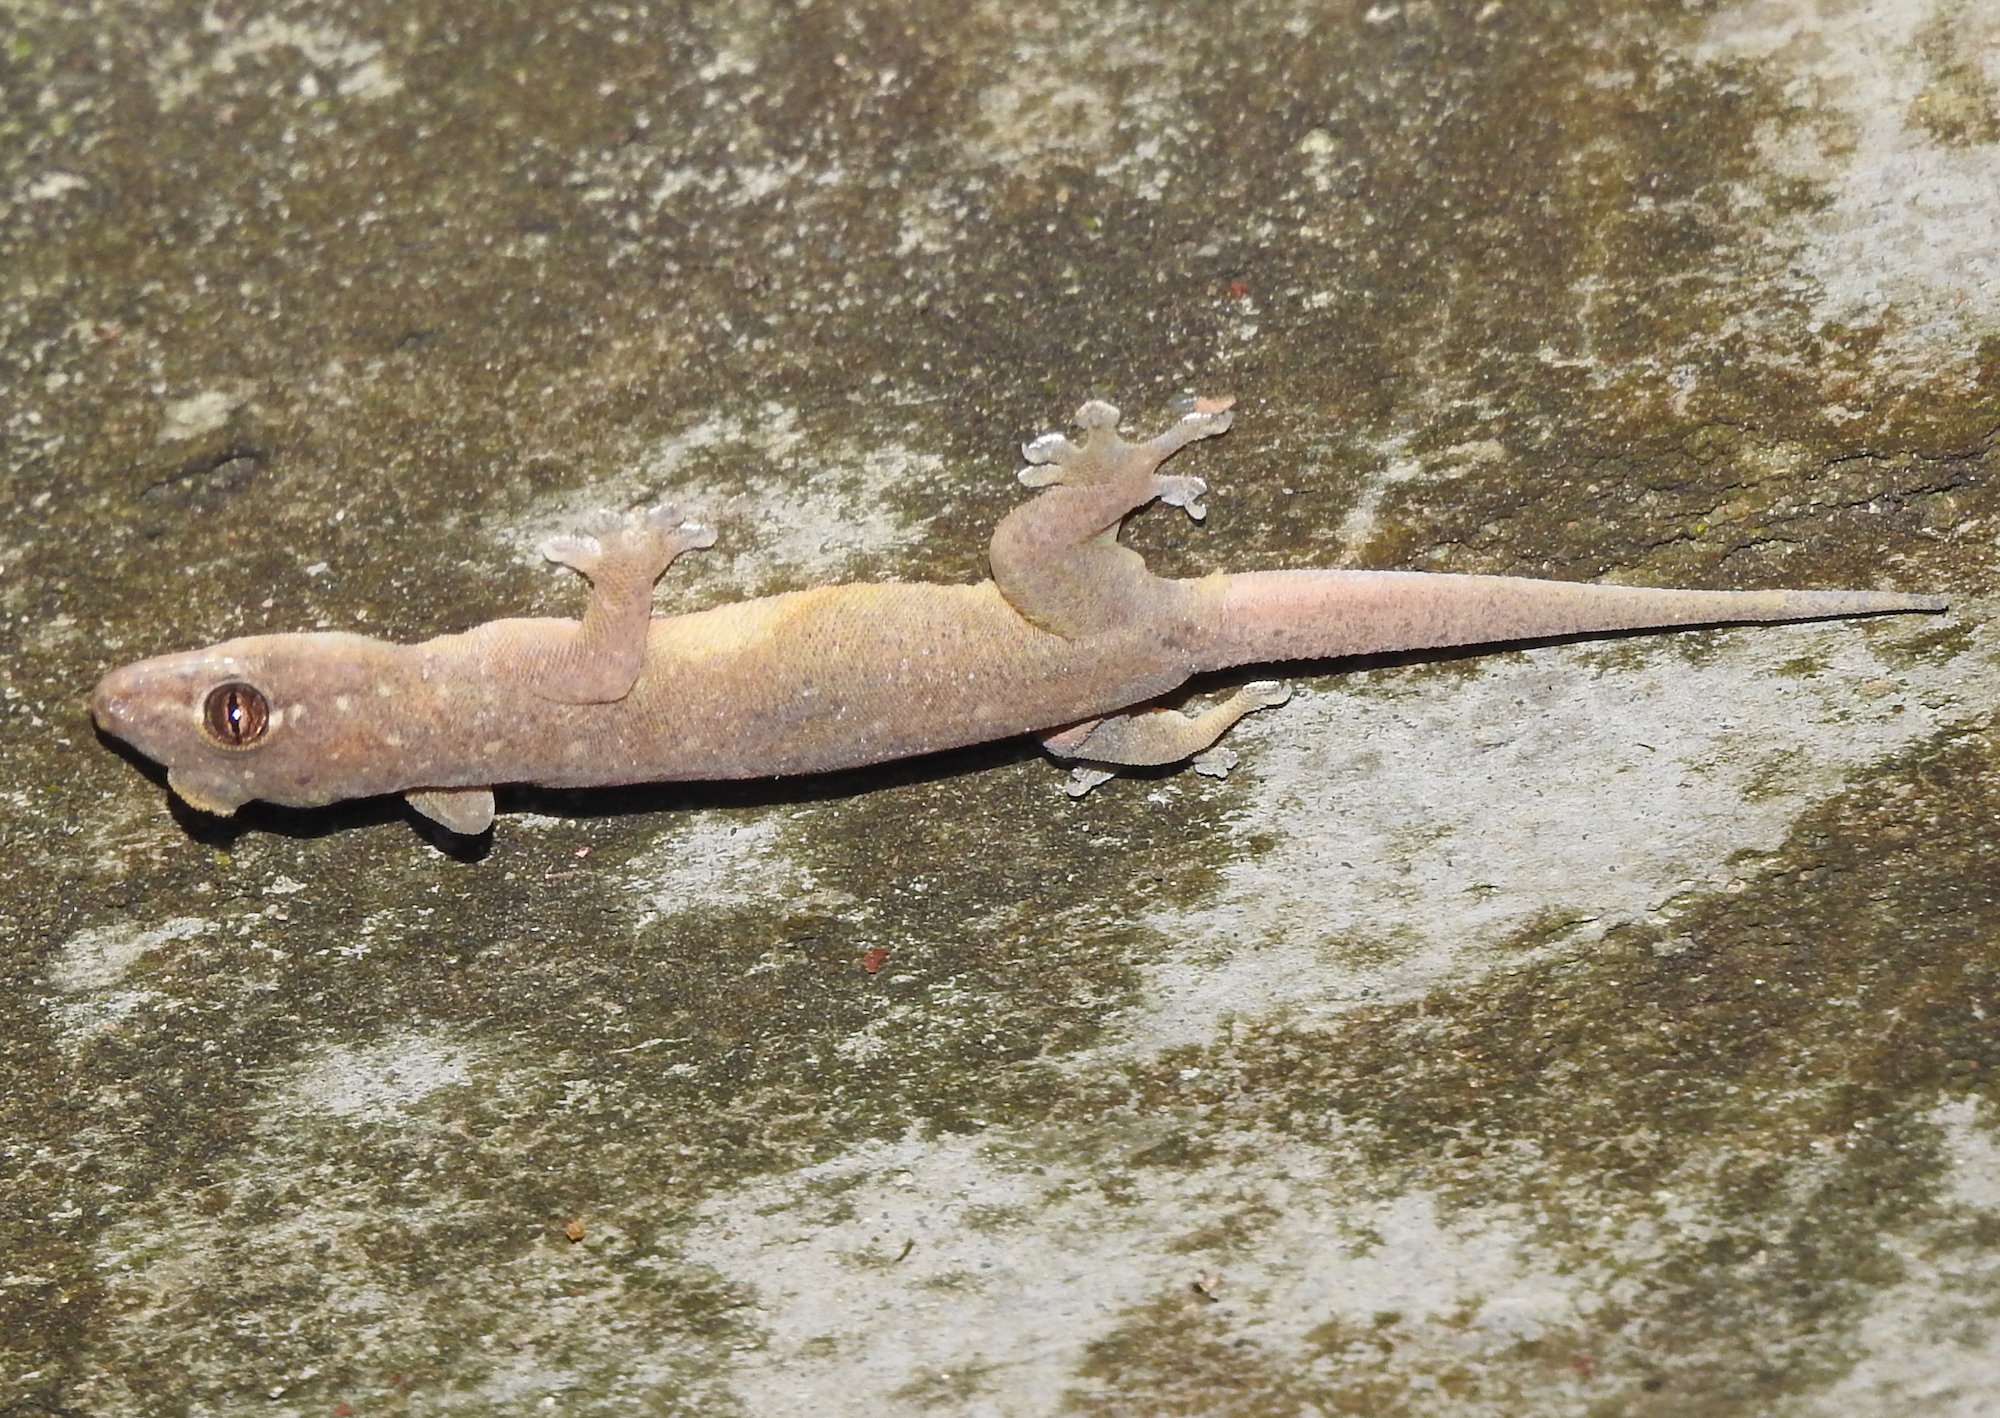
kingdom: Animalia
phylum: Chordata
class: Squamata
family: Gekkonidae
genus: Gehyra
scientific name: Gehyra mutilata
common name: Stump-toed gecko
